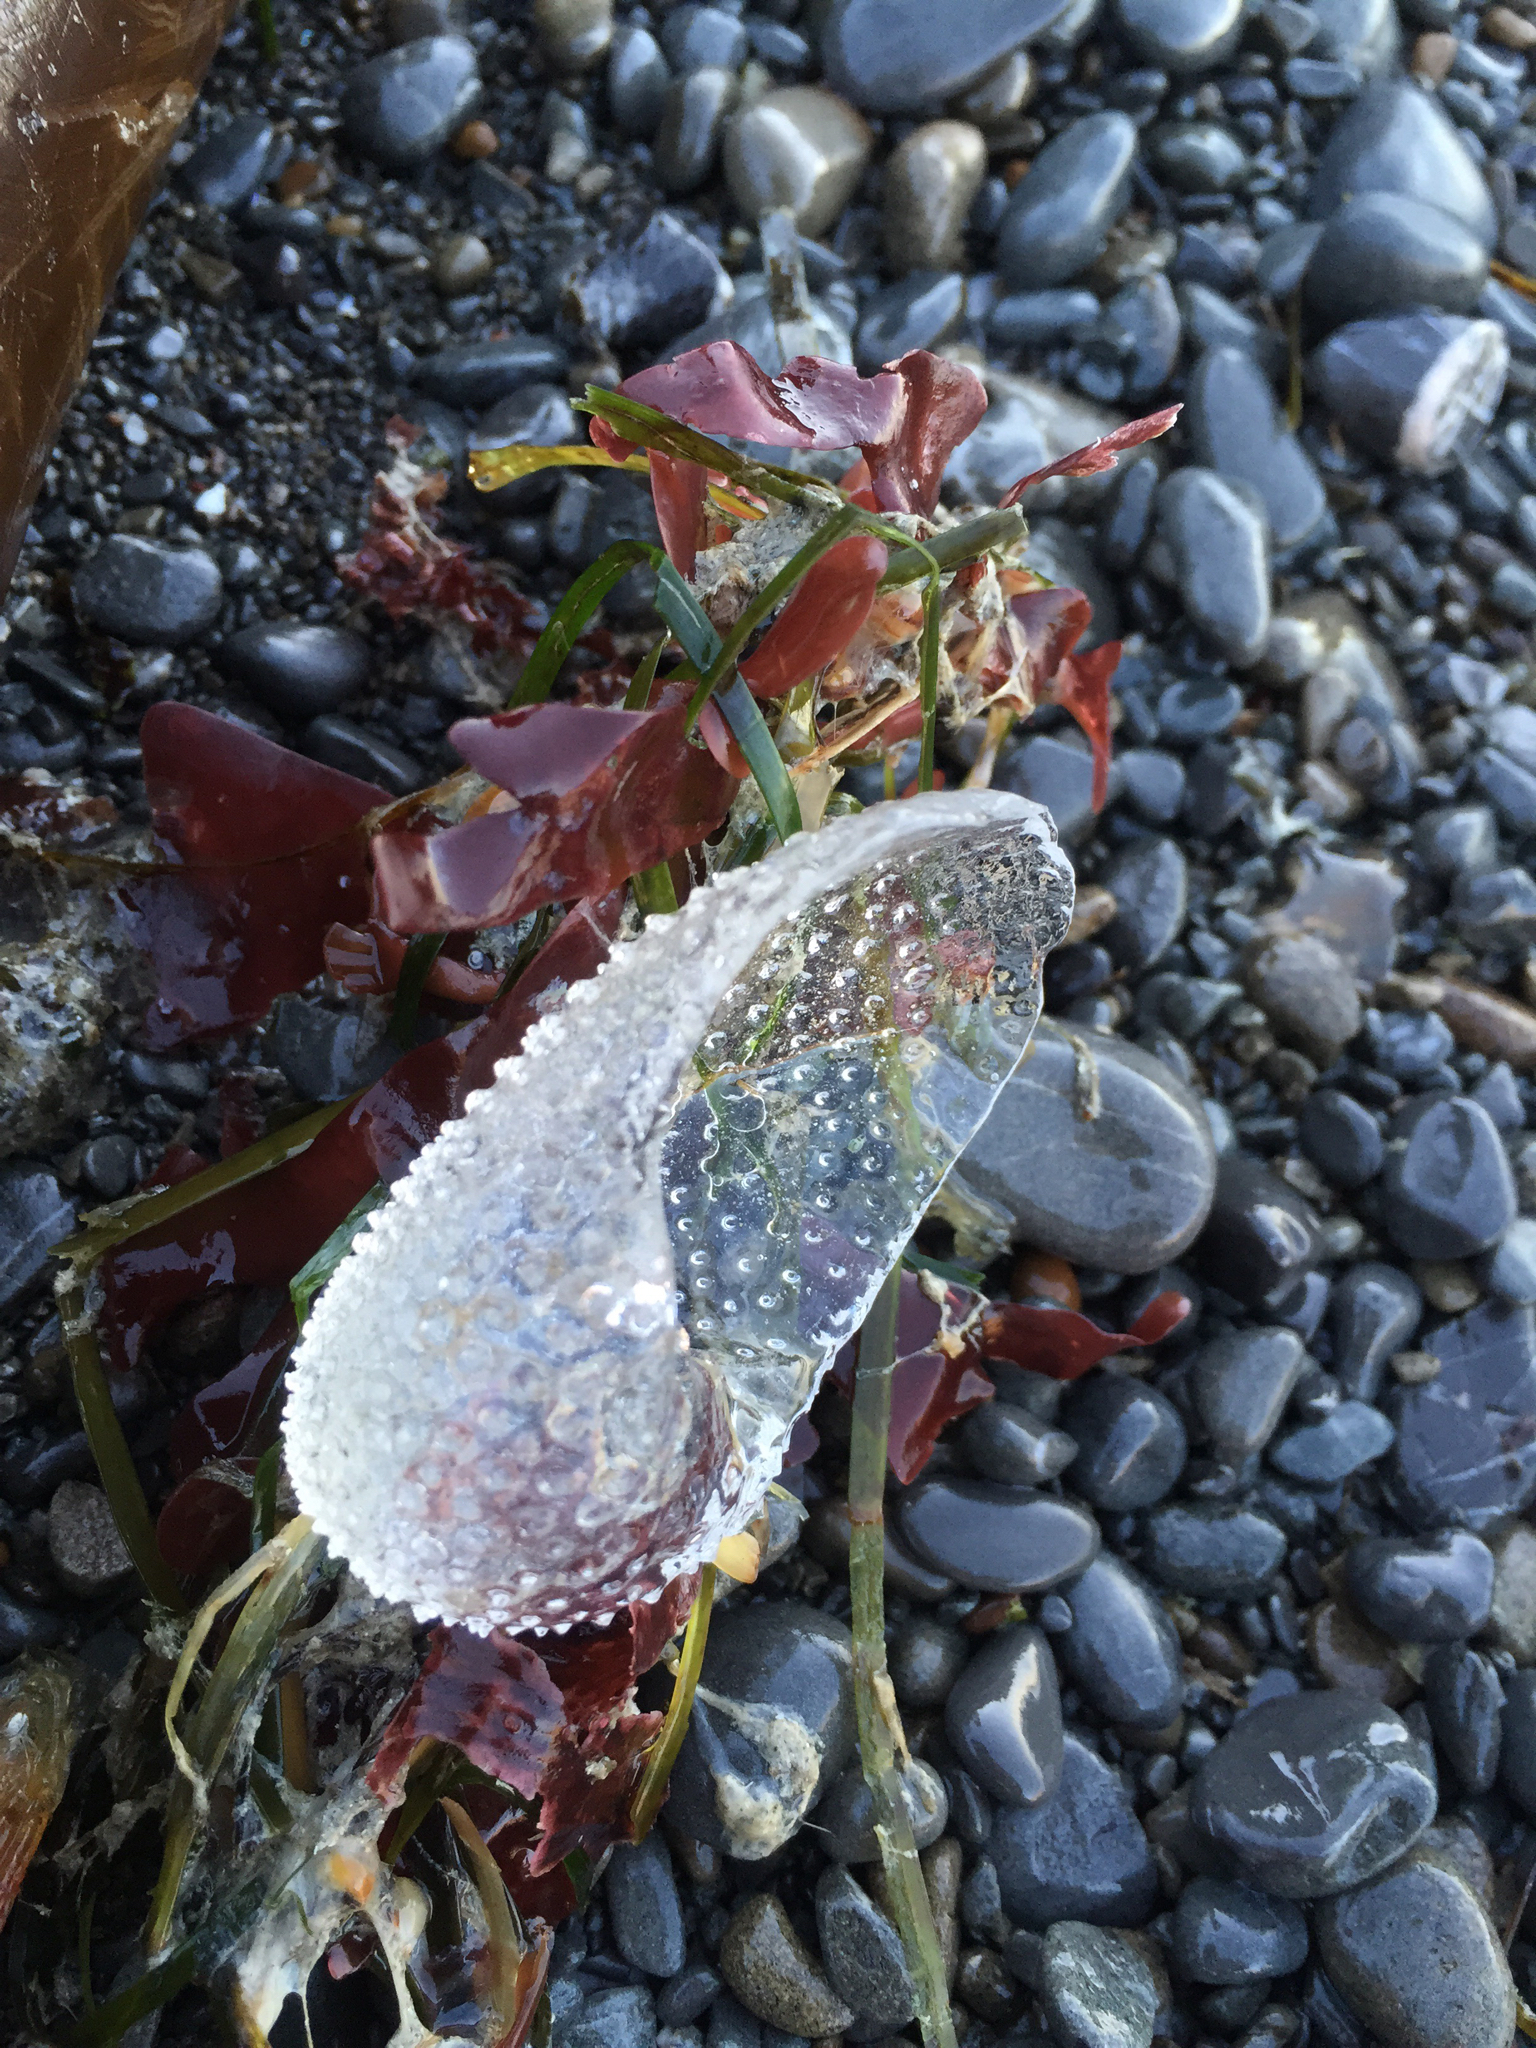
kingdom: Animalia
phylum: Mollusca
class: Gastropoda
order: Pteropoda
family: Cymbuliidae
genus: Corolla
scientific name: Corolla spectabilis
